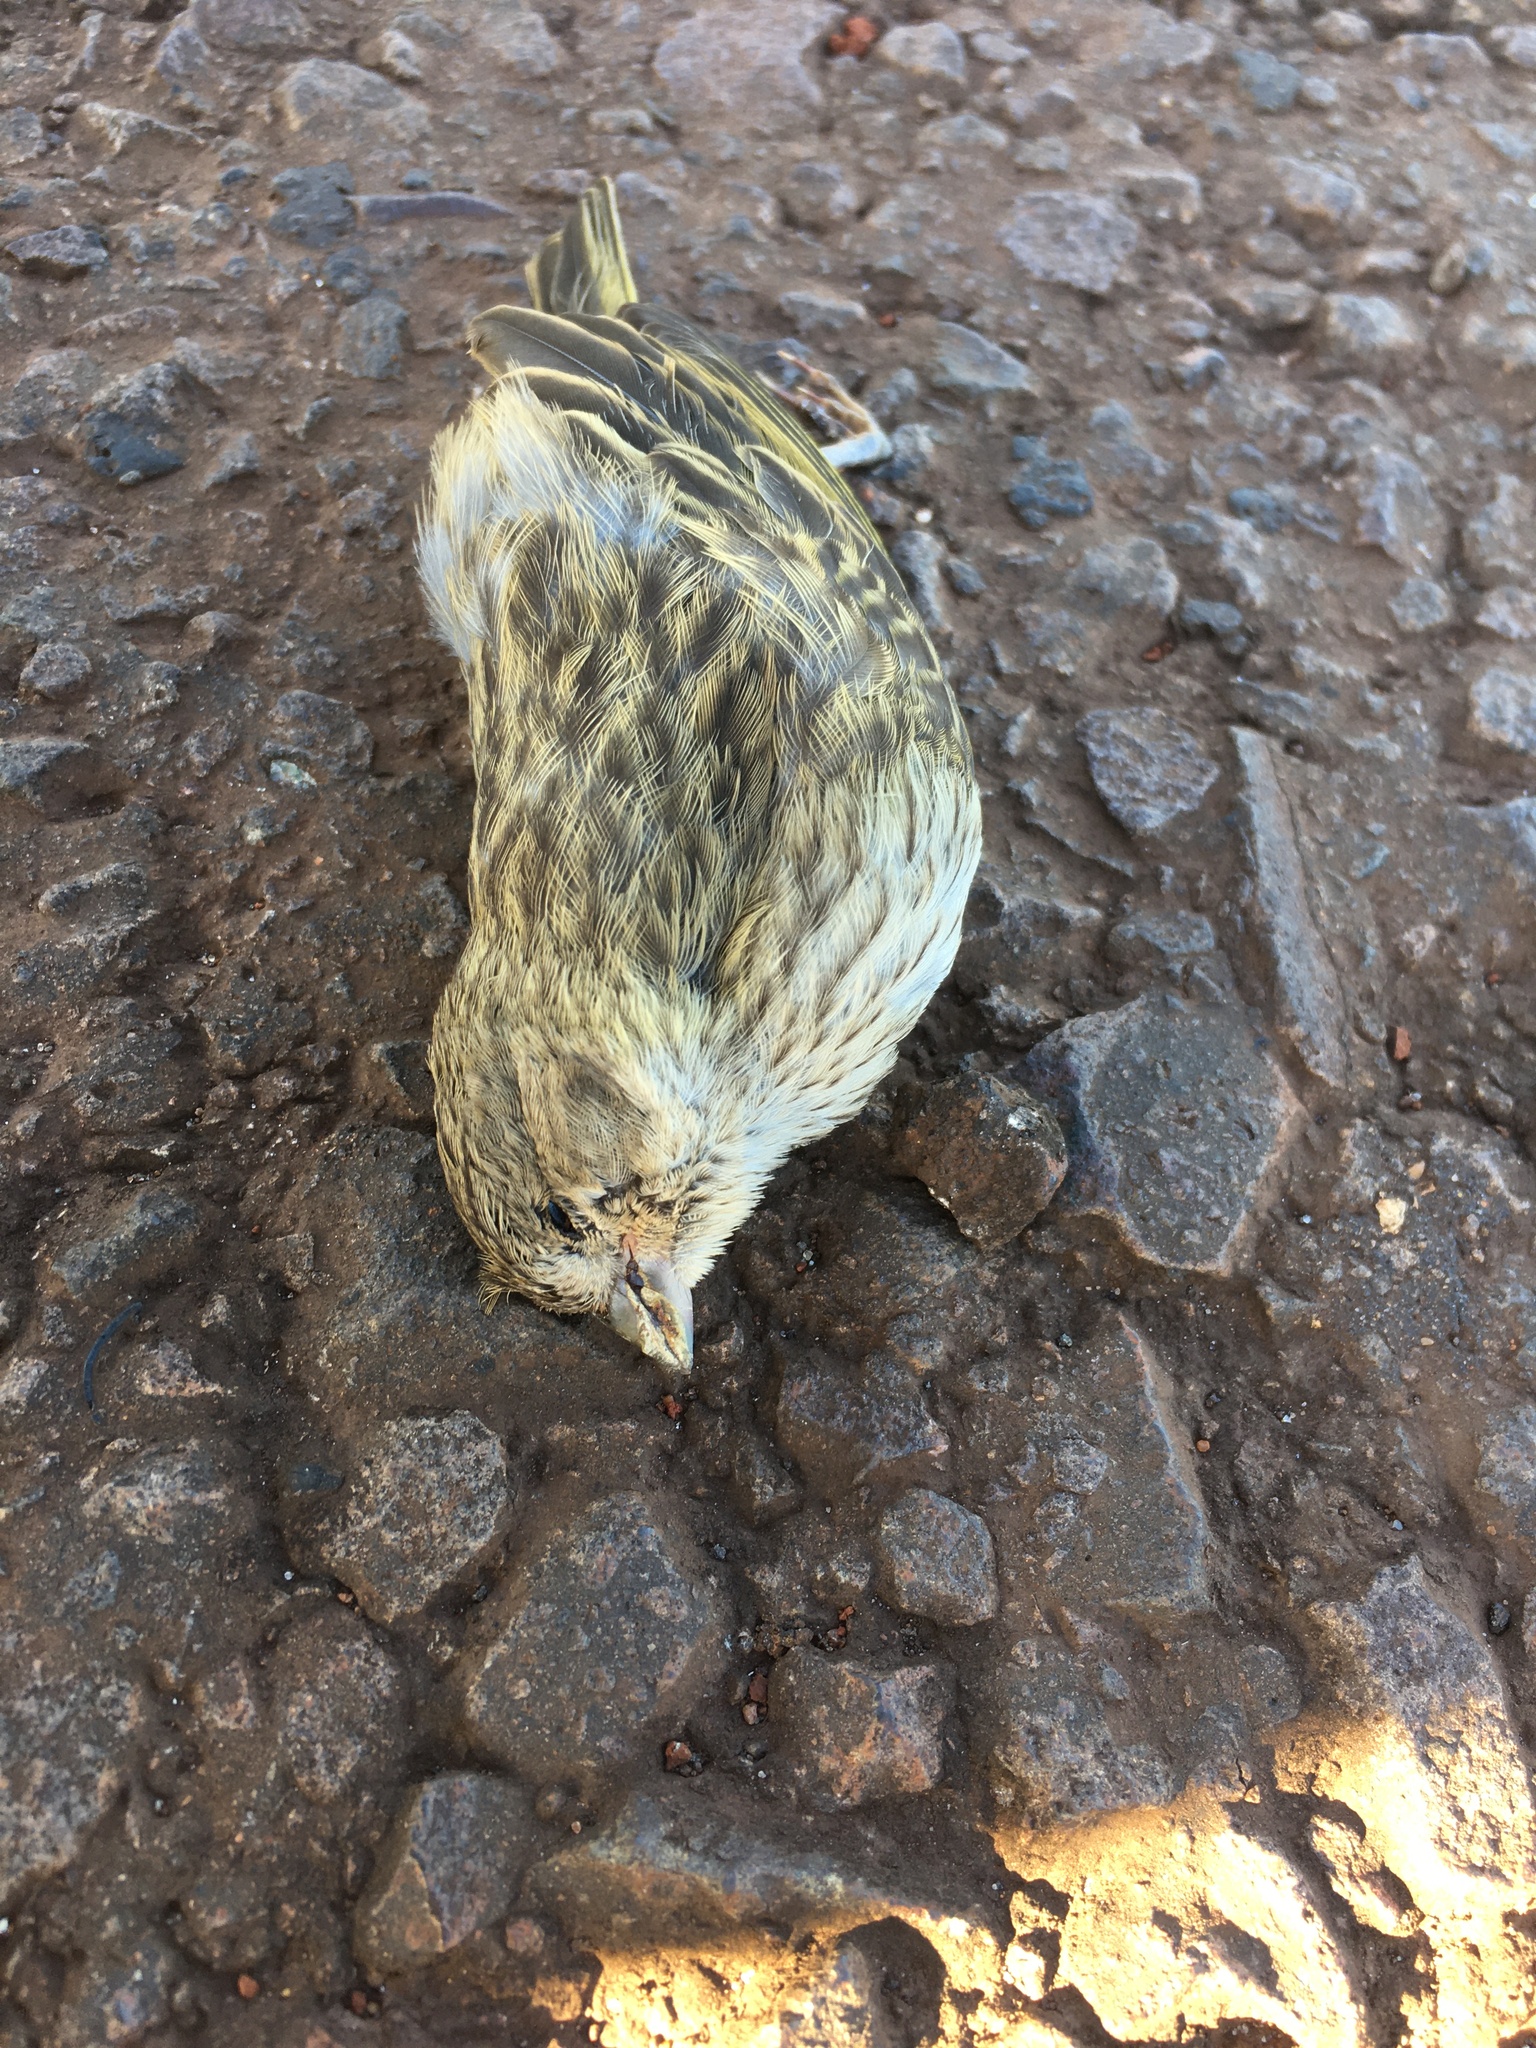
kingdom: Animalia
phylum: Chordata
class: Aves
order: Passeriformes
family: Thraupidae
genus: Sicalis
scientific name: Sicalis flaveola
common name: Saffron finch
